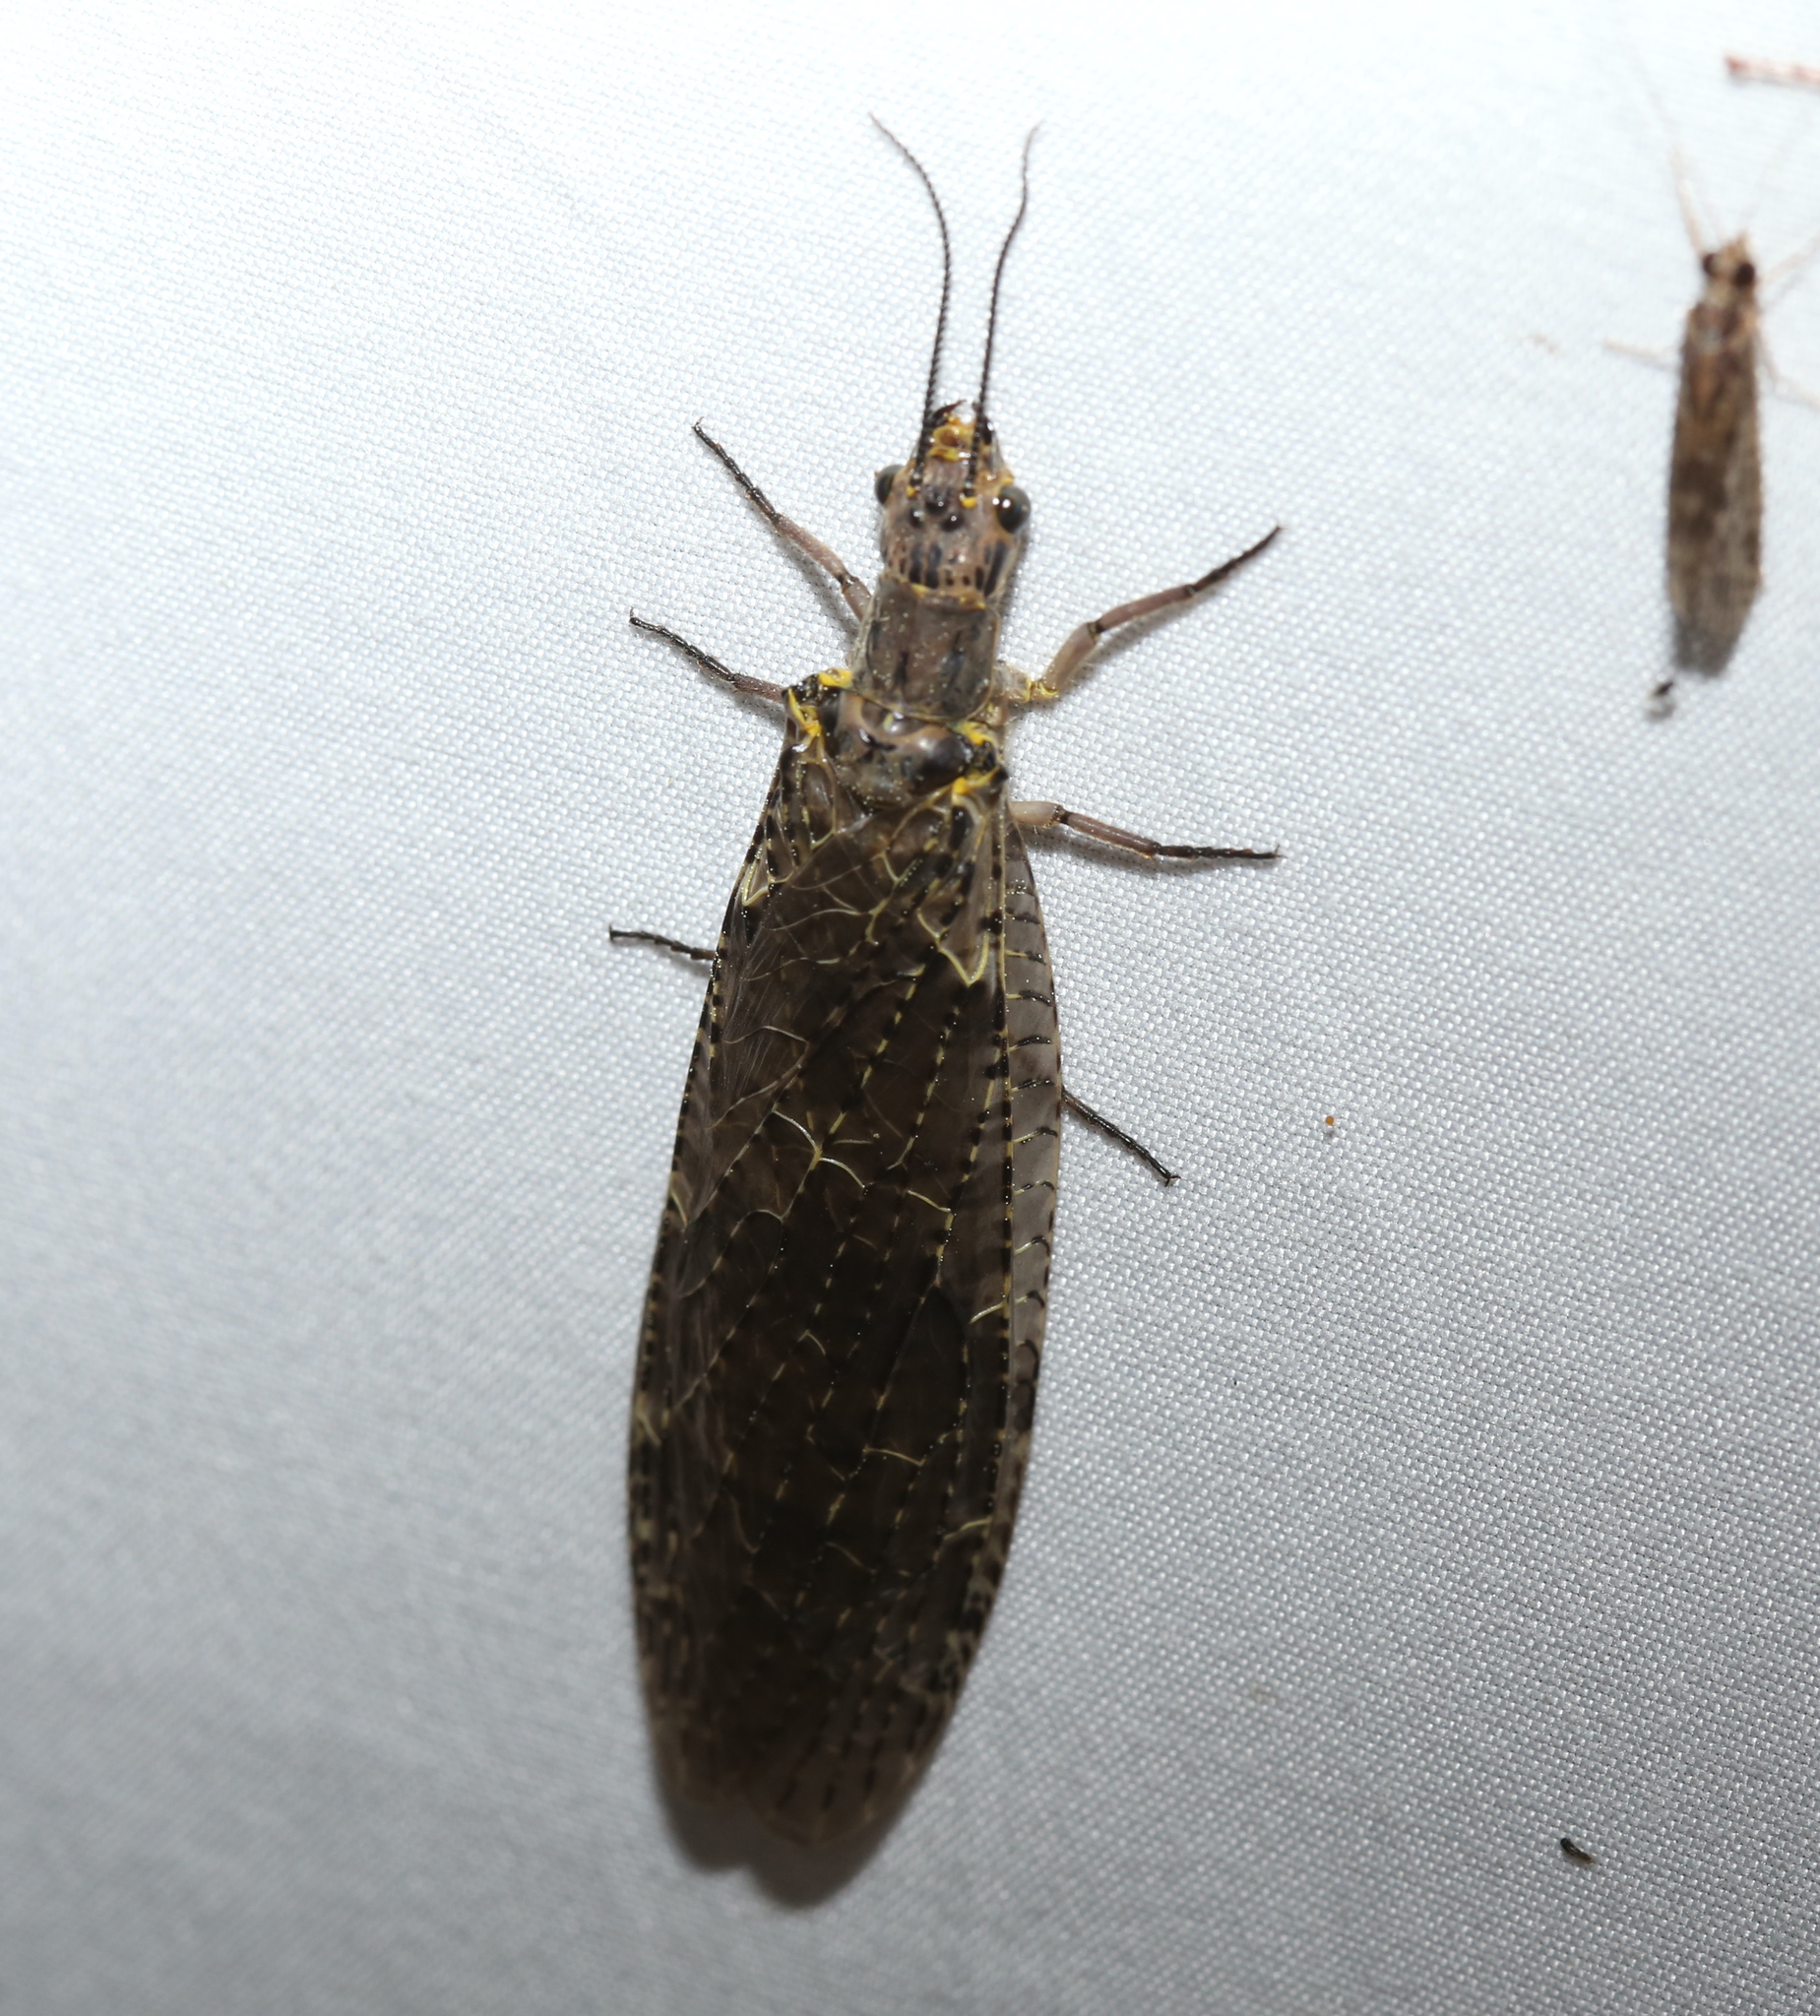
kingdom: Animalia
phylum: Arthropoda
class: Insecta
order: Megaloptera
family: Corydalidae
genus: Chauliodes
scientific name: Chauliodes rastricornis
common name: Spring fishfly
